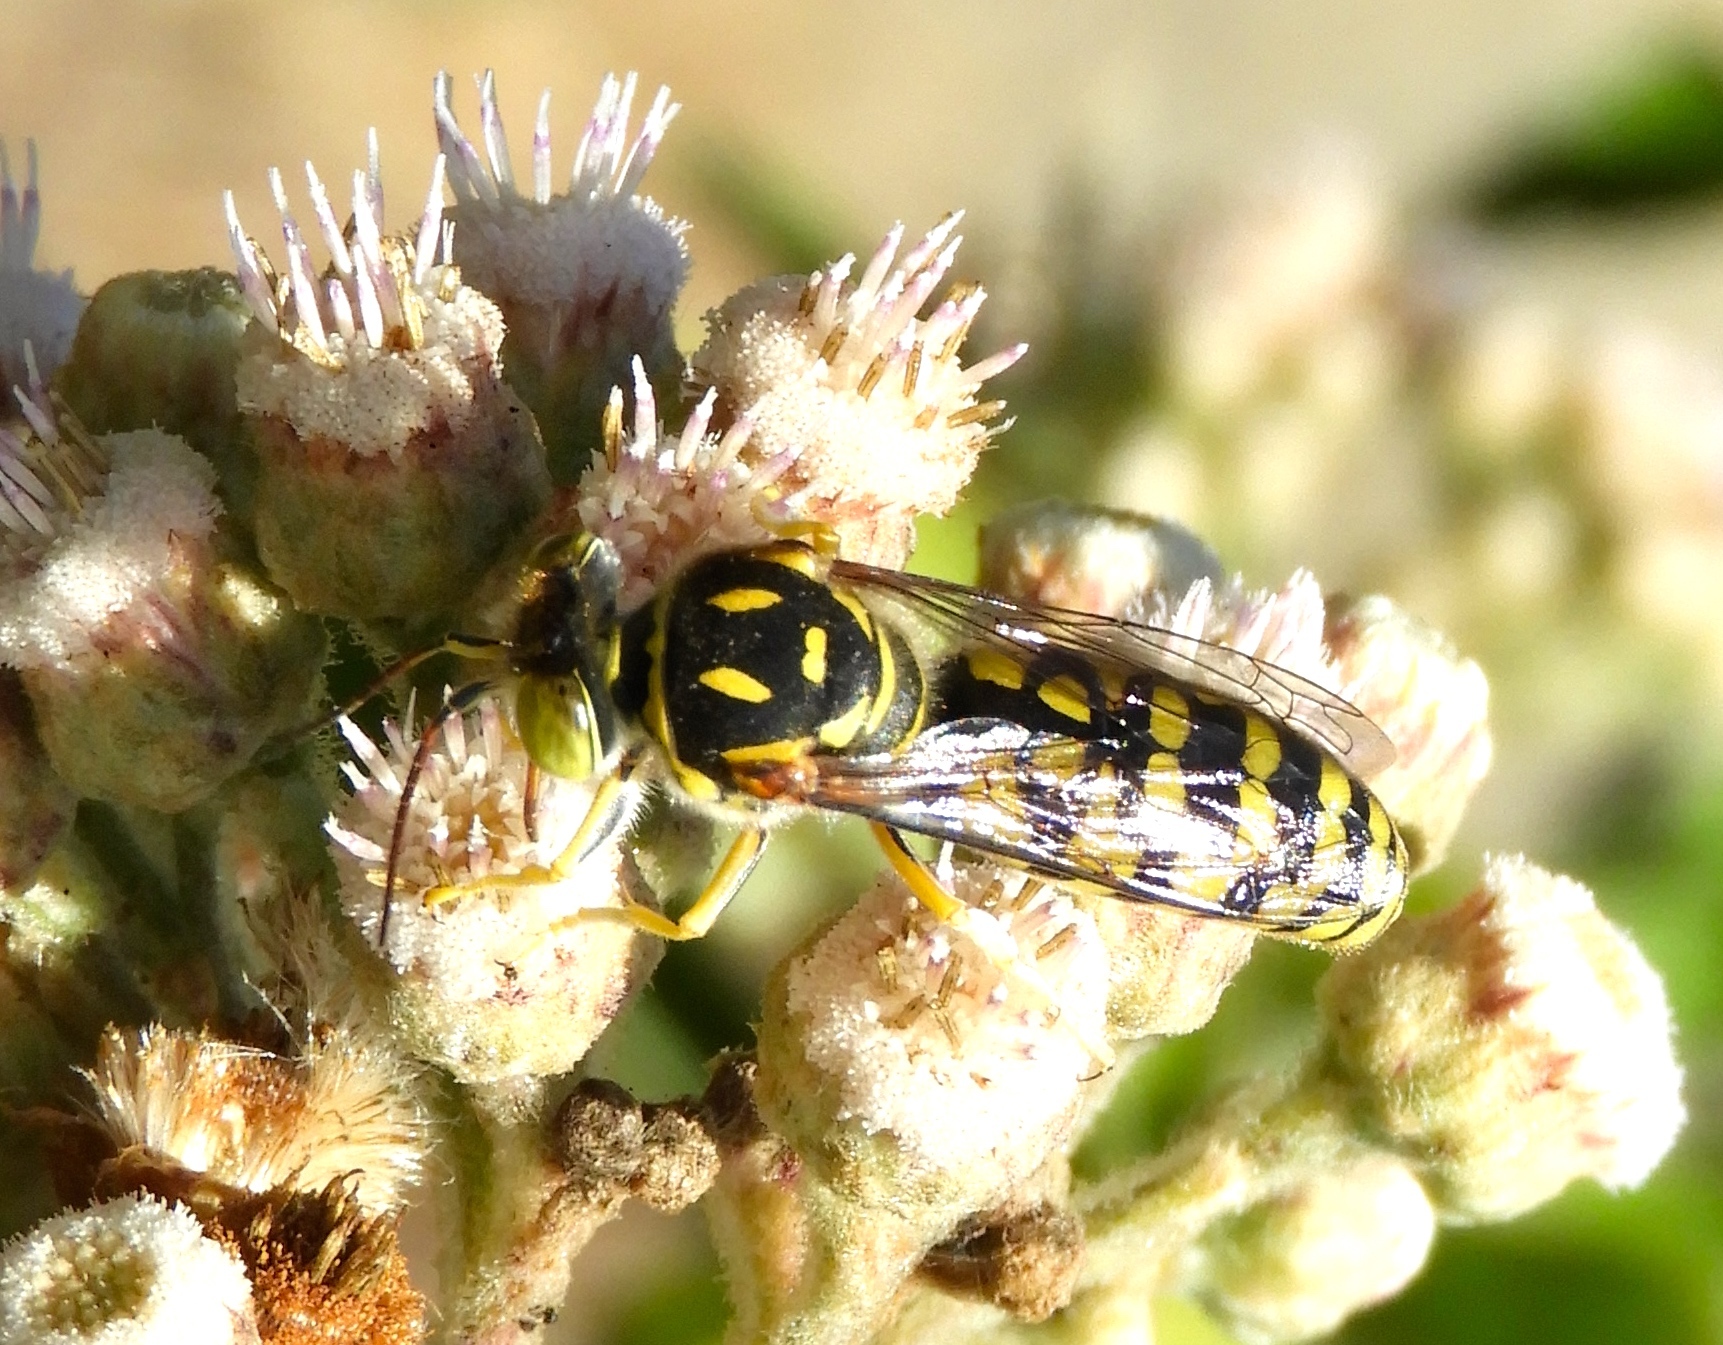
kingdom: Animalia
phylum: Arthropoda
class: Insecta
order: Hymenoptera
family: Crabronidae
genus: Steniolia
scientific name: Steniolia
